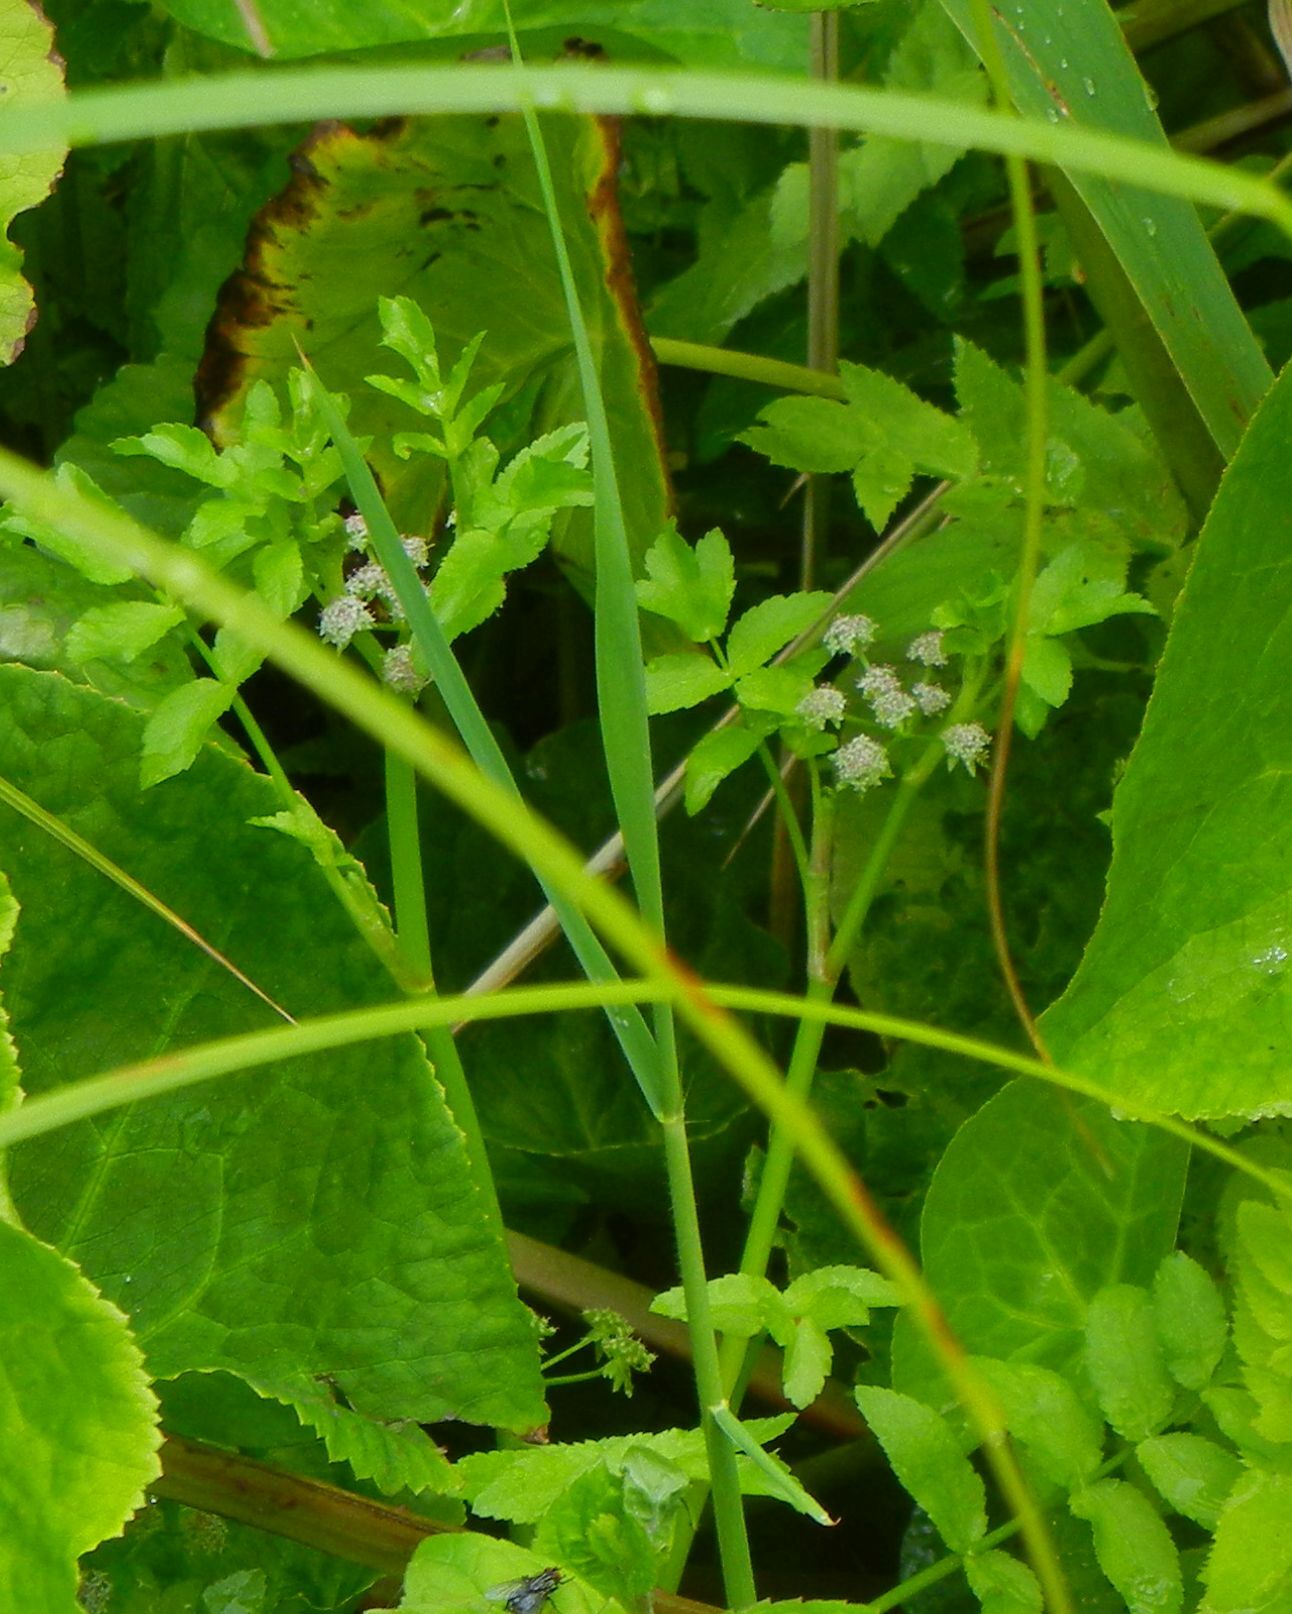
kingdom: Plantae
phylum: Tracheophyta
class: Magnoliopsida
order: Apiales
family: Apiaceae
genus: Helosciadium
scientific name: Helosciadium nodiflorum
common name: Fool's-watercress
